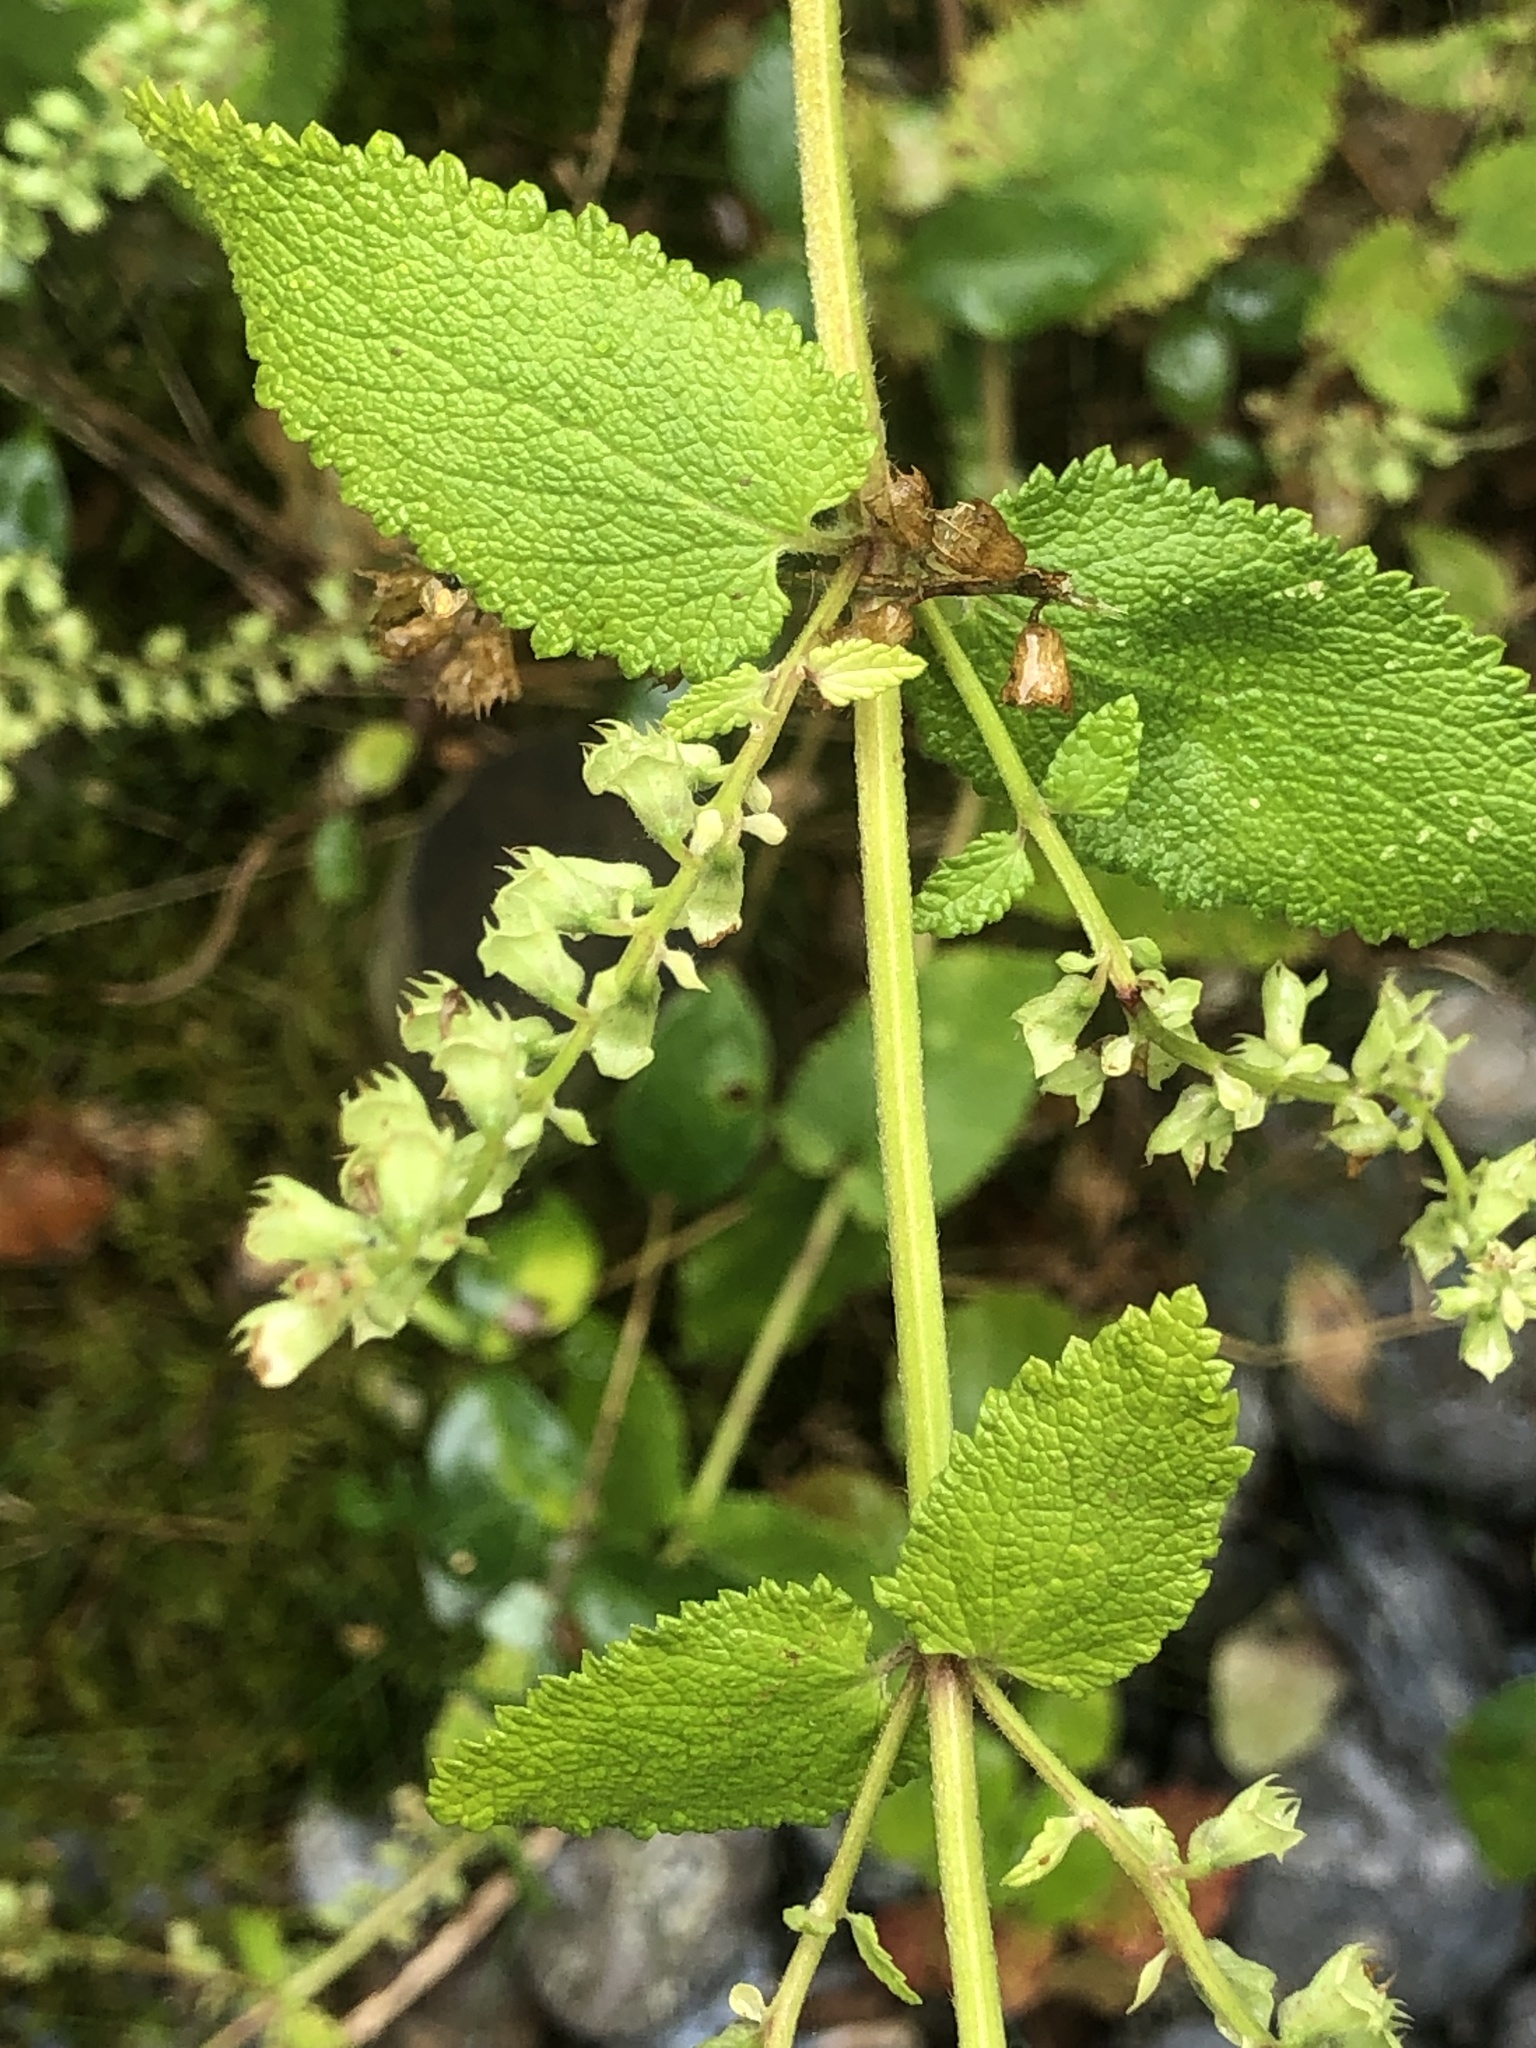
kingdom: Plantae
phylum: Tracheophyta
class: Magnoliopsida
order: Lamiales
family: Lamiaceae
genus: Teucrium
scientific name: Teucrium scorodonia
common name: Woodland germander
